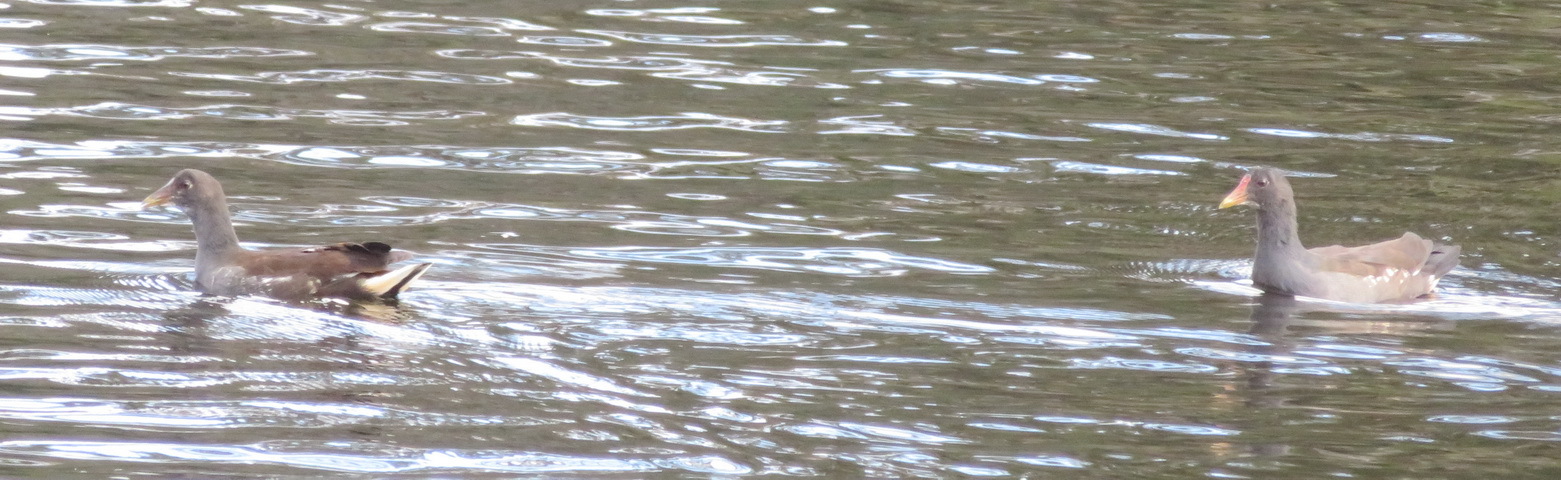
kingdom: Animalia
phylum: Chordata
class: Aves
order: Gruiformes
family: Rallidae
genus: Gallinula
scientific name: Gallinula chloropus
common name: Common moorhen
